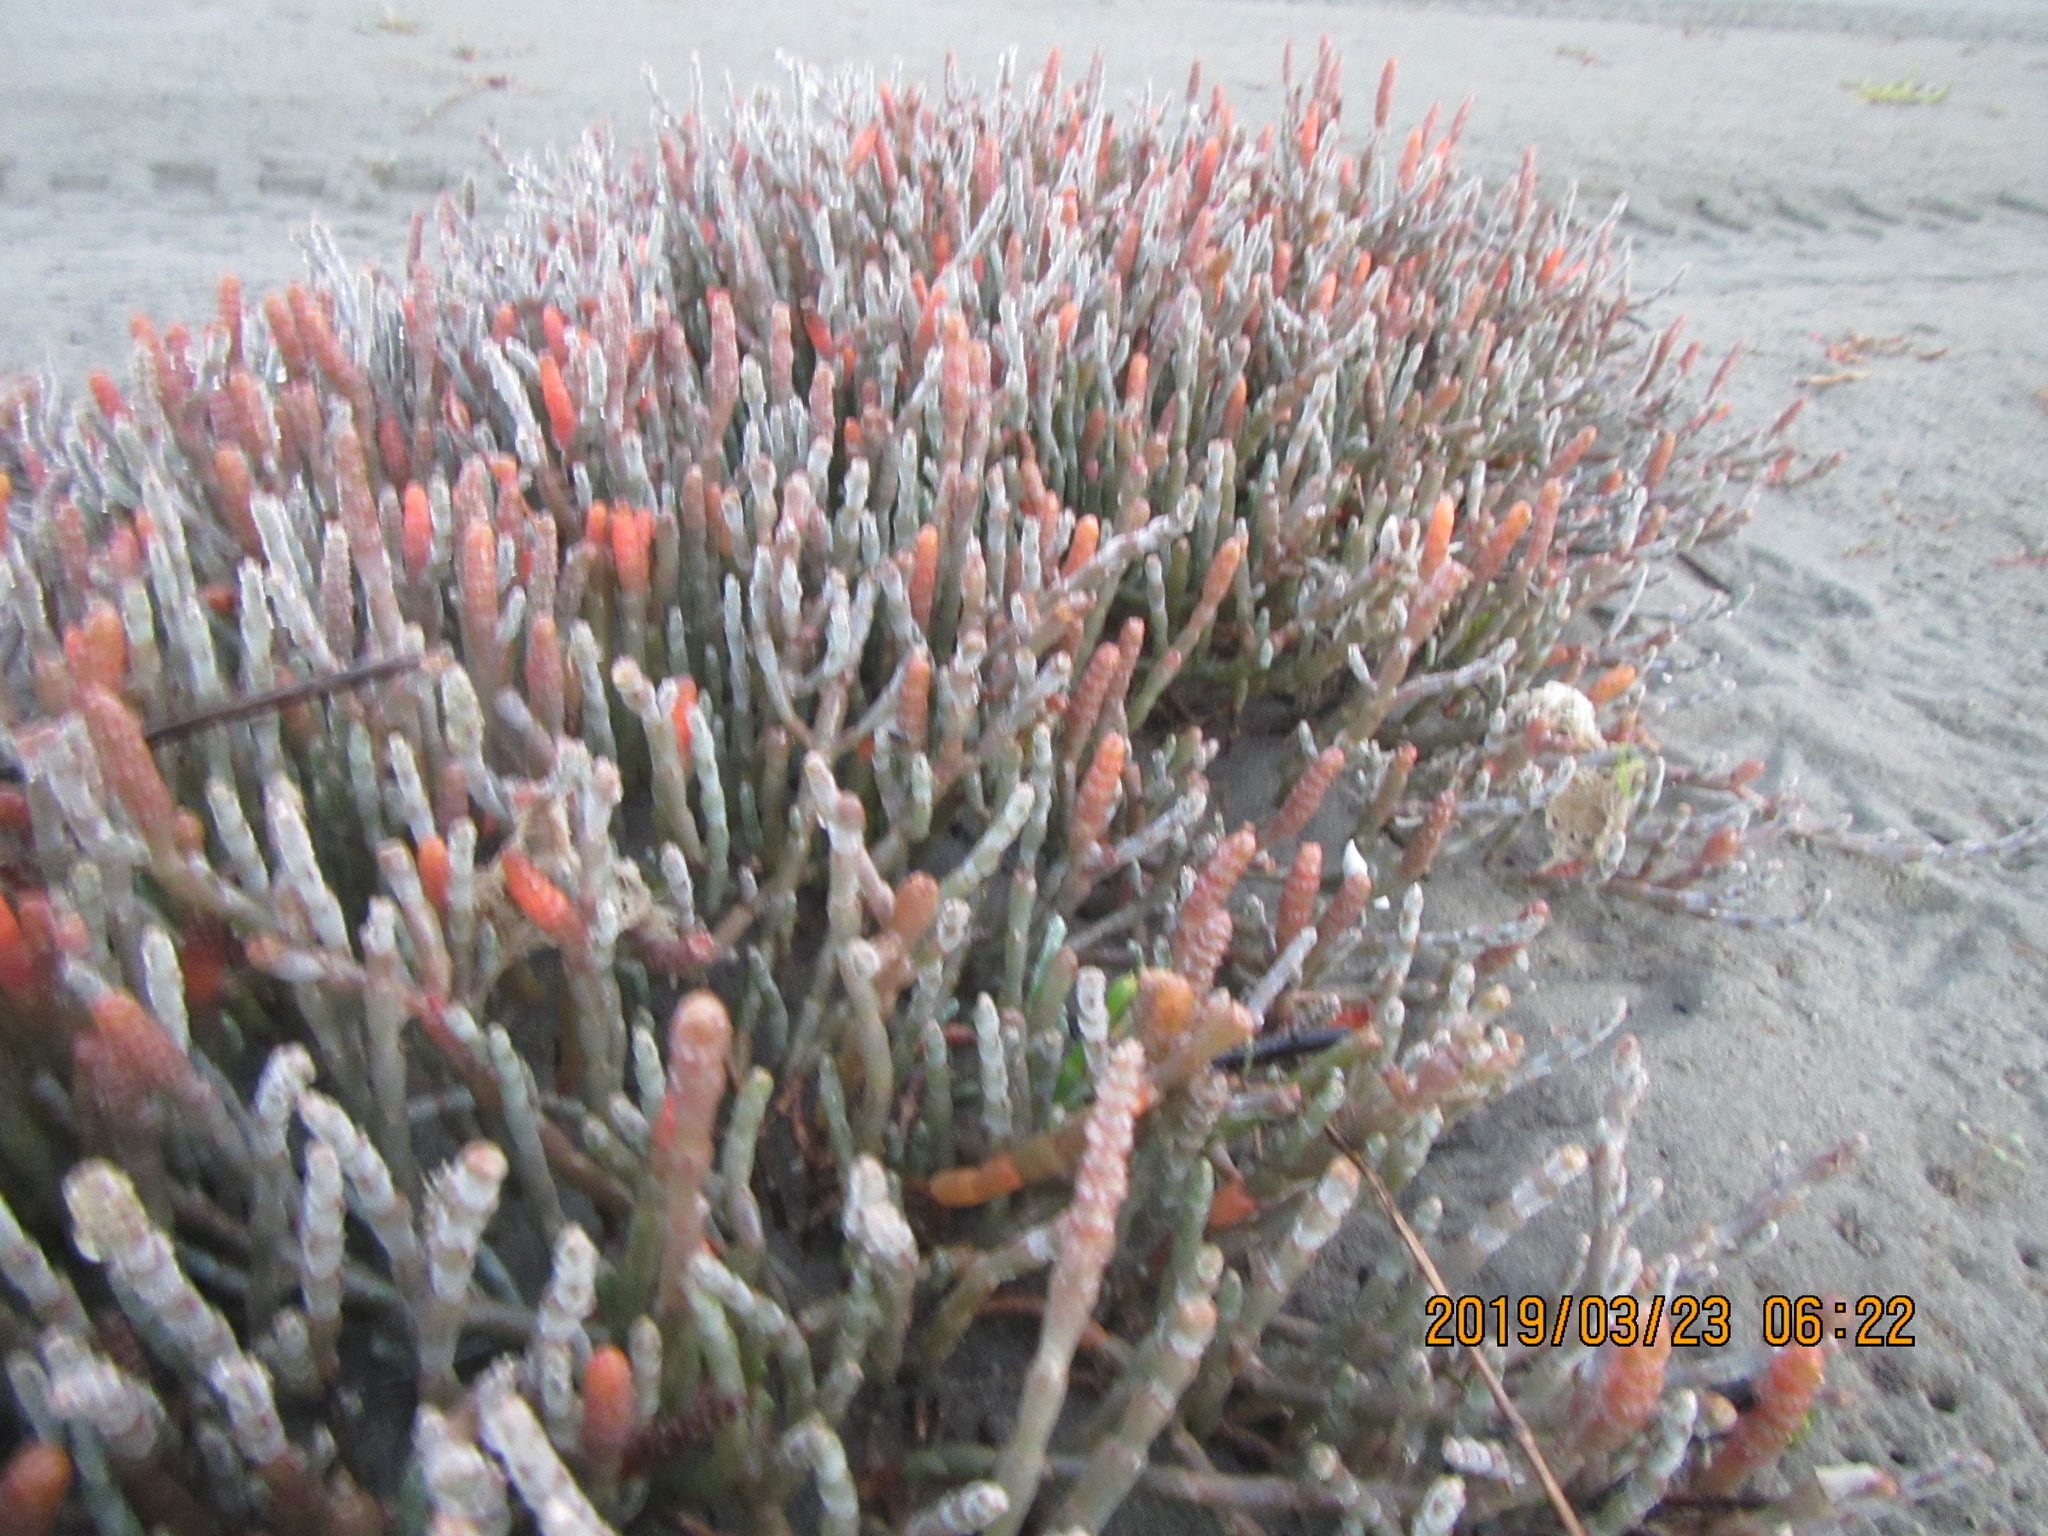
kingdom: Plantae
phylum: Tracheophyta
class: Magnoliopsida
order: Caryophyllales
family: Amaranthaceae
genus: Salicornia
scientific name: Salicornia quinqueflora
